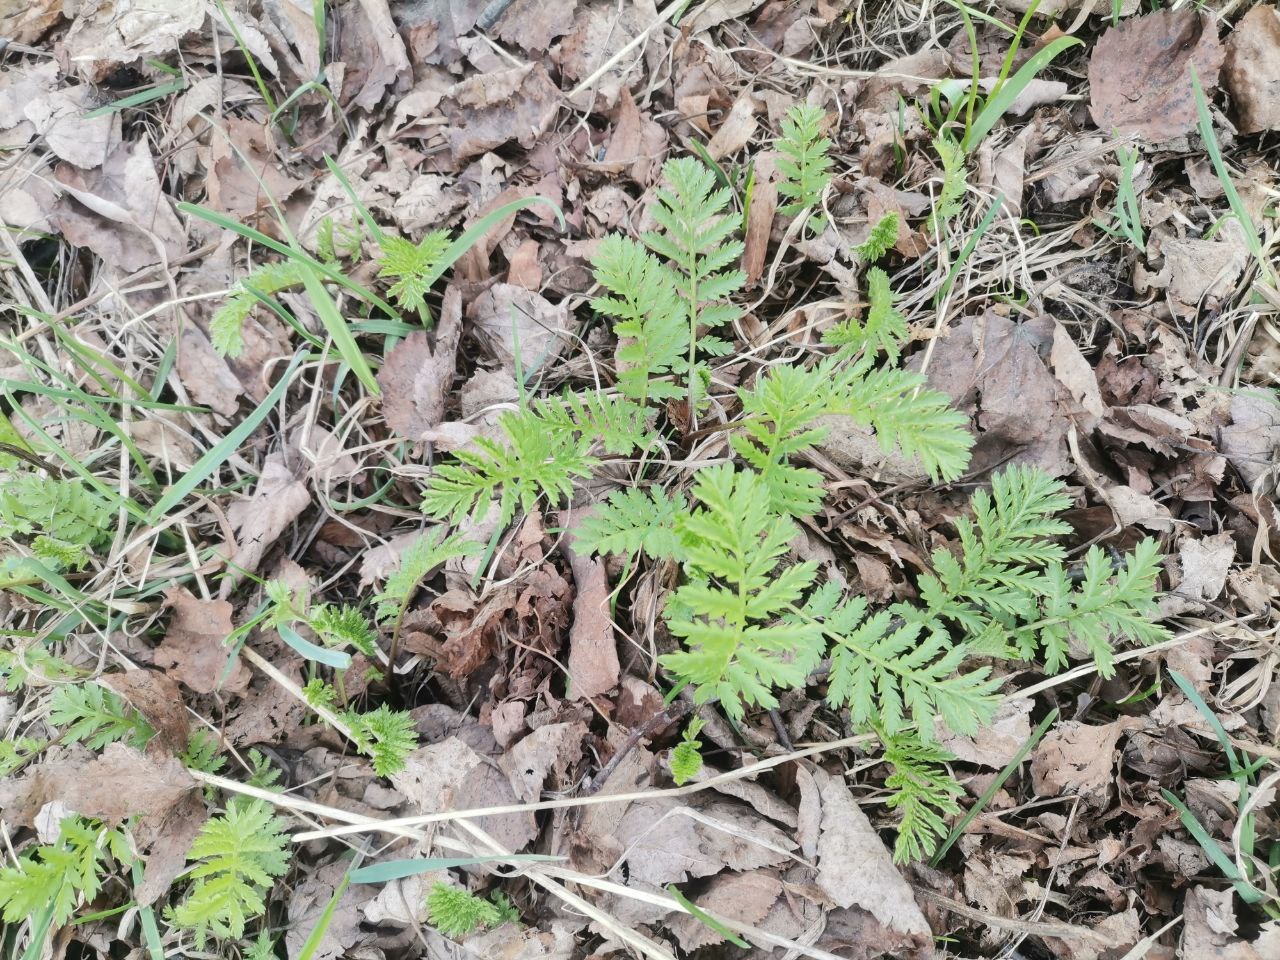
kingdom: Plantae
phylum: Tracheophyta
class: Magnoliopsida
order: Asterales
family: Asteraceae
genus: Tanacetum
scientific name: Tanacetum vulgare
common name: Common tansy
